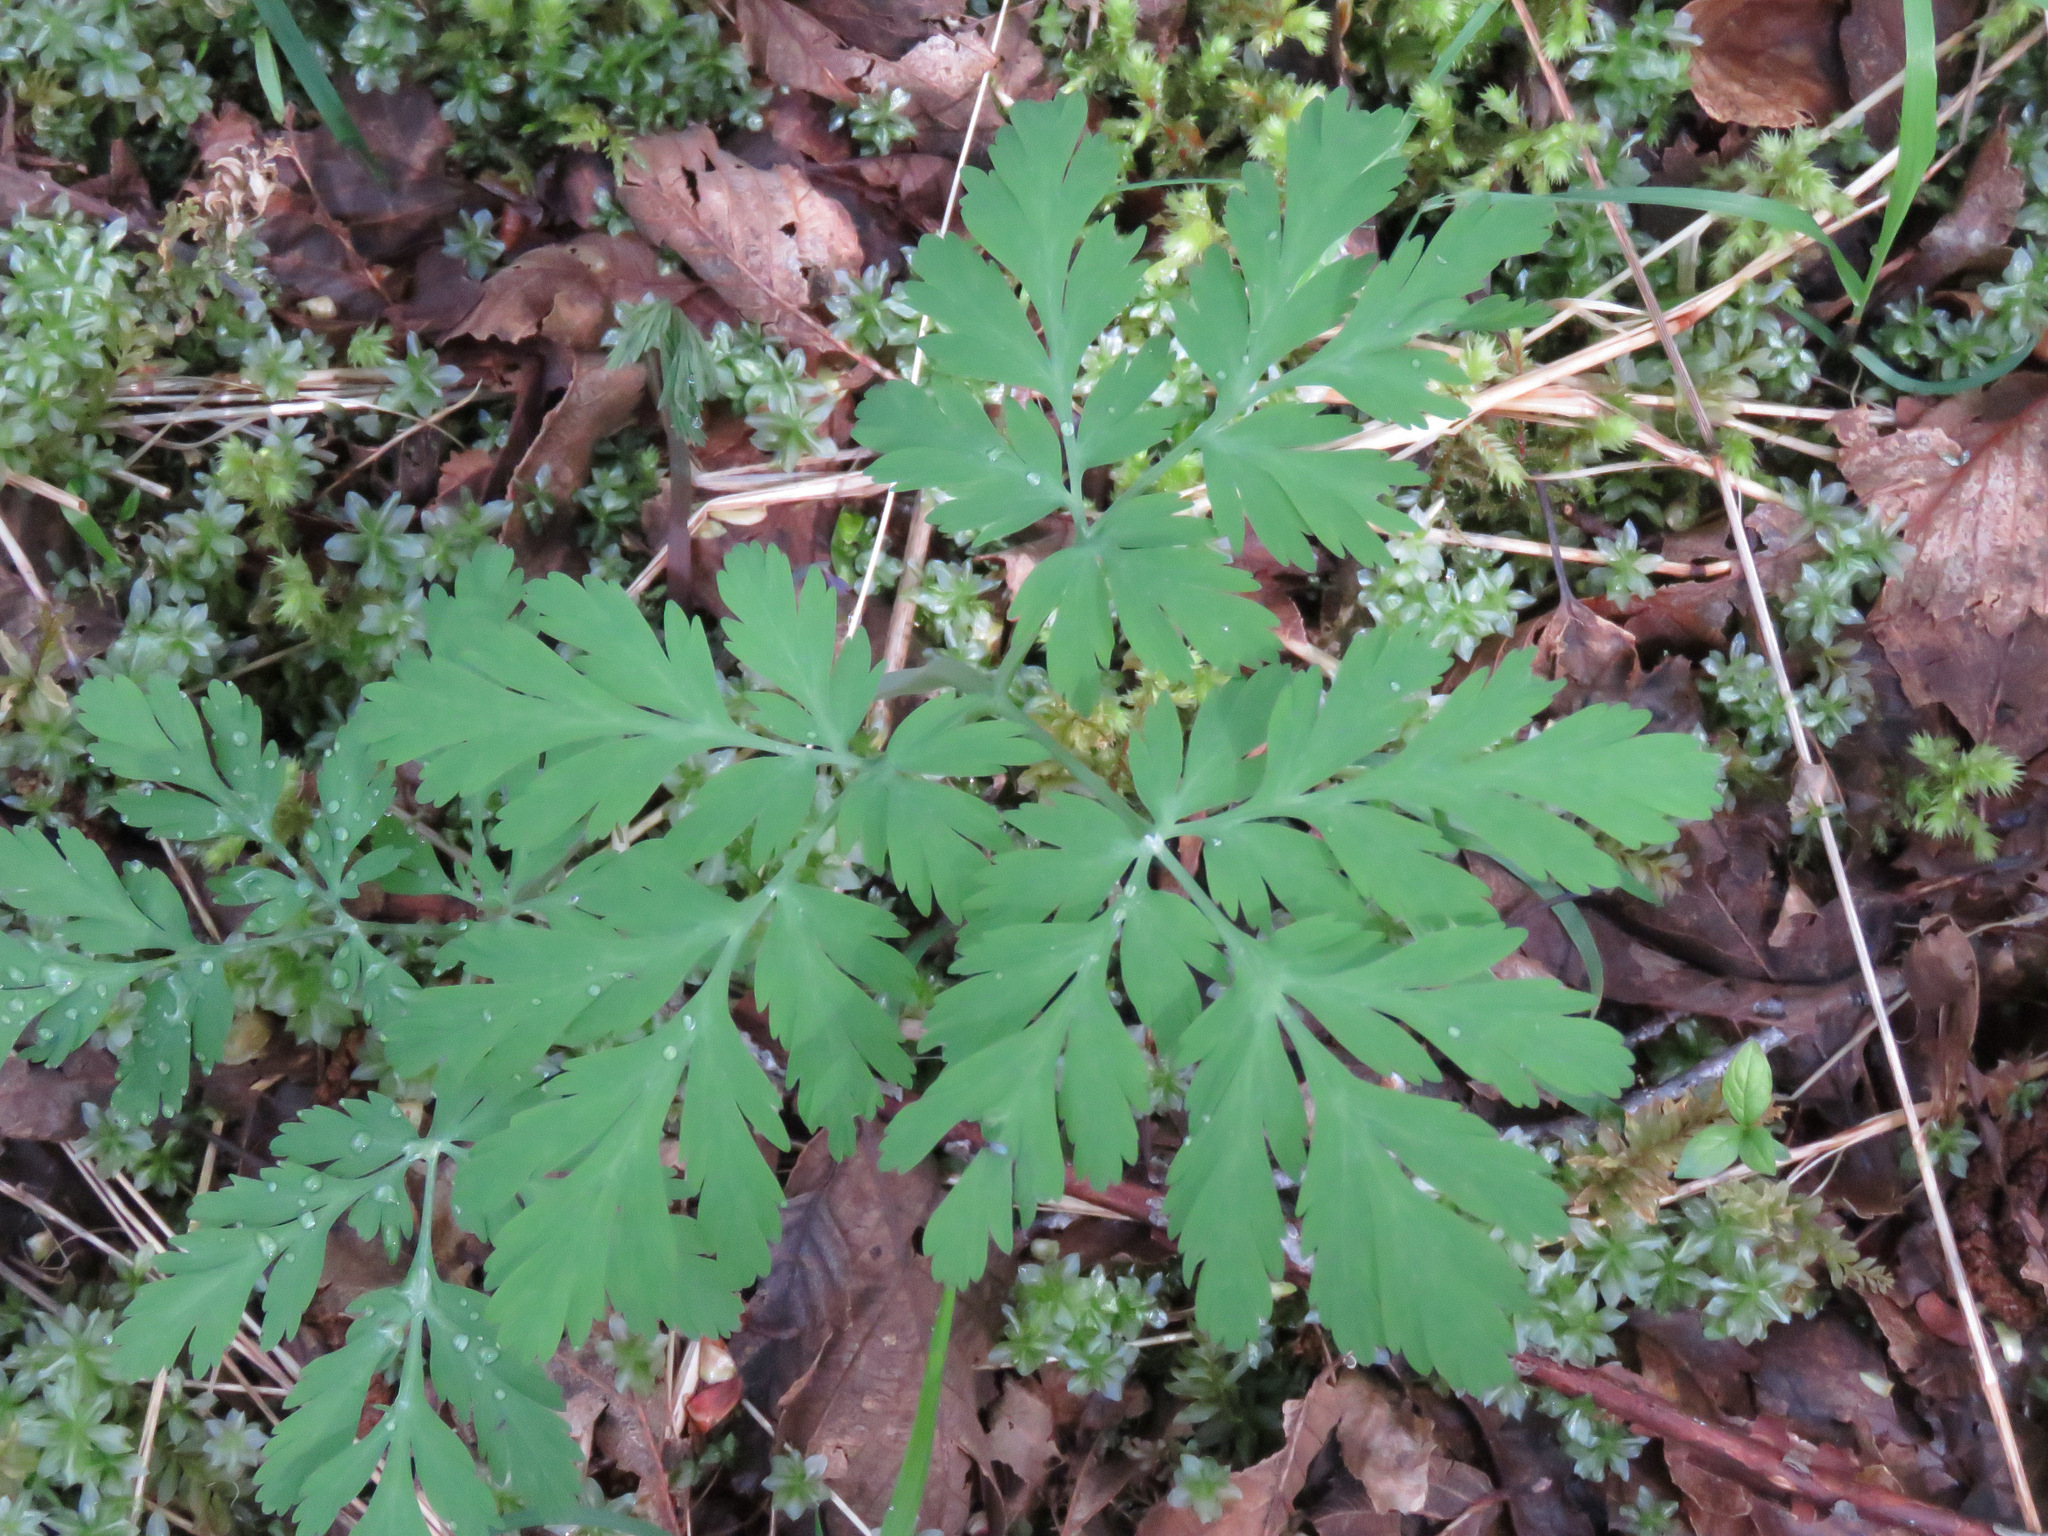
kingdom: Plantae
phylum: Tracheophyta
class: Magnoliopsida
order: Ranunculales
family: Papaveraceae
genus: Dicentra
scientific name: Dicentra formosa
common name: Bleeding-heart
